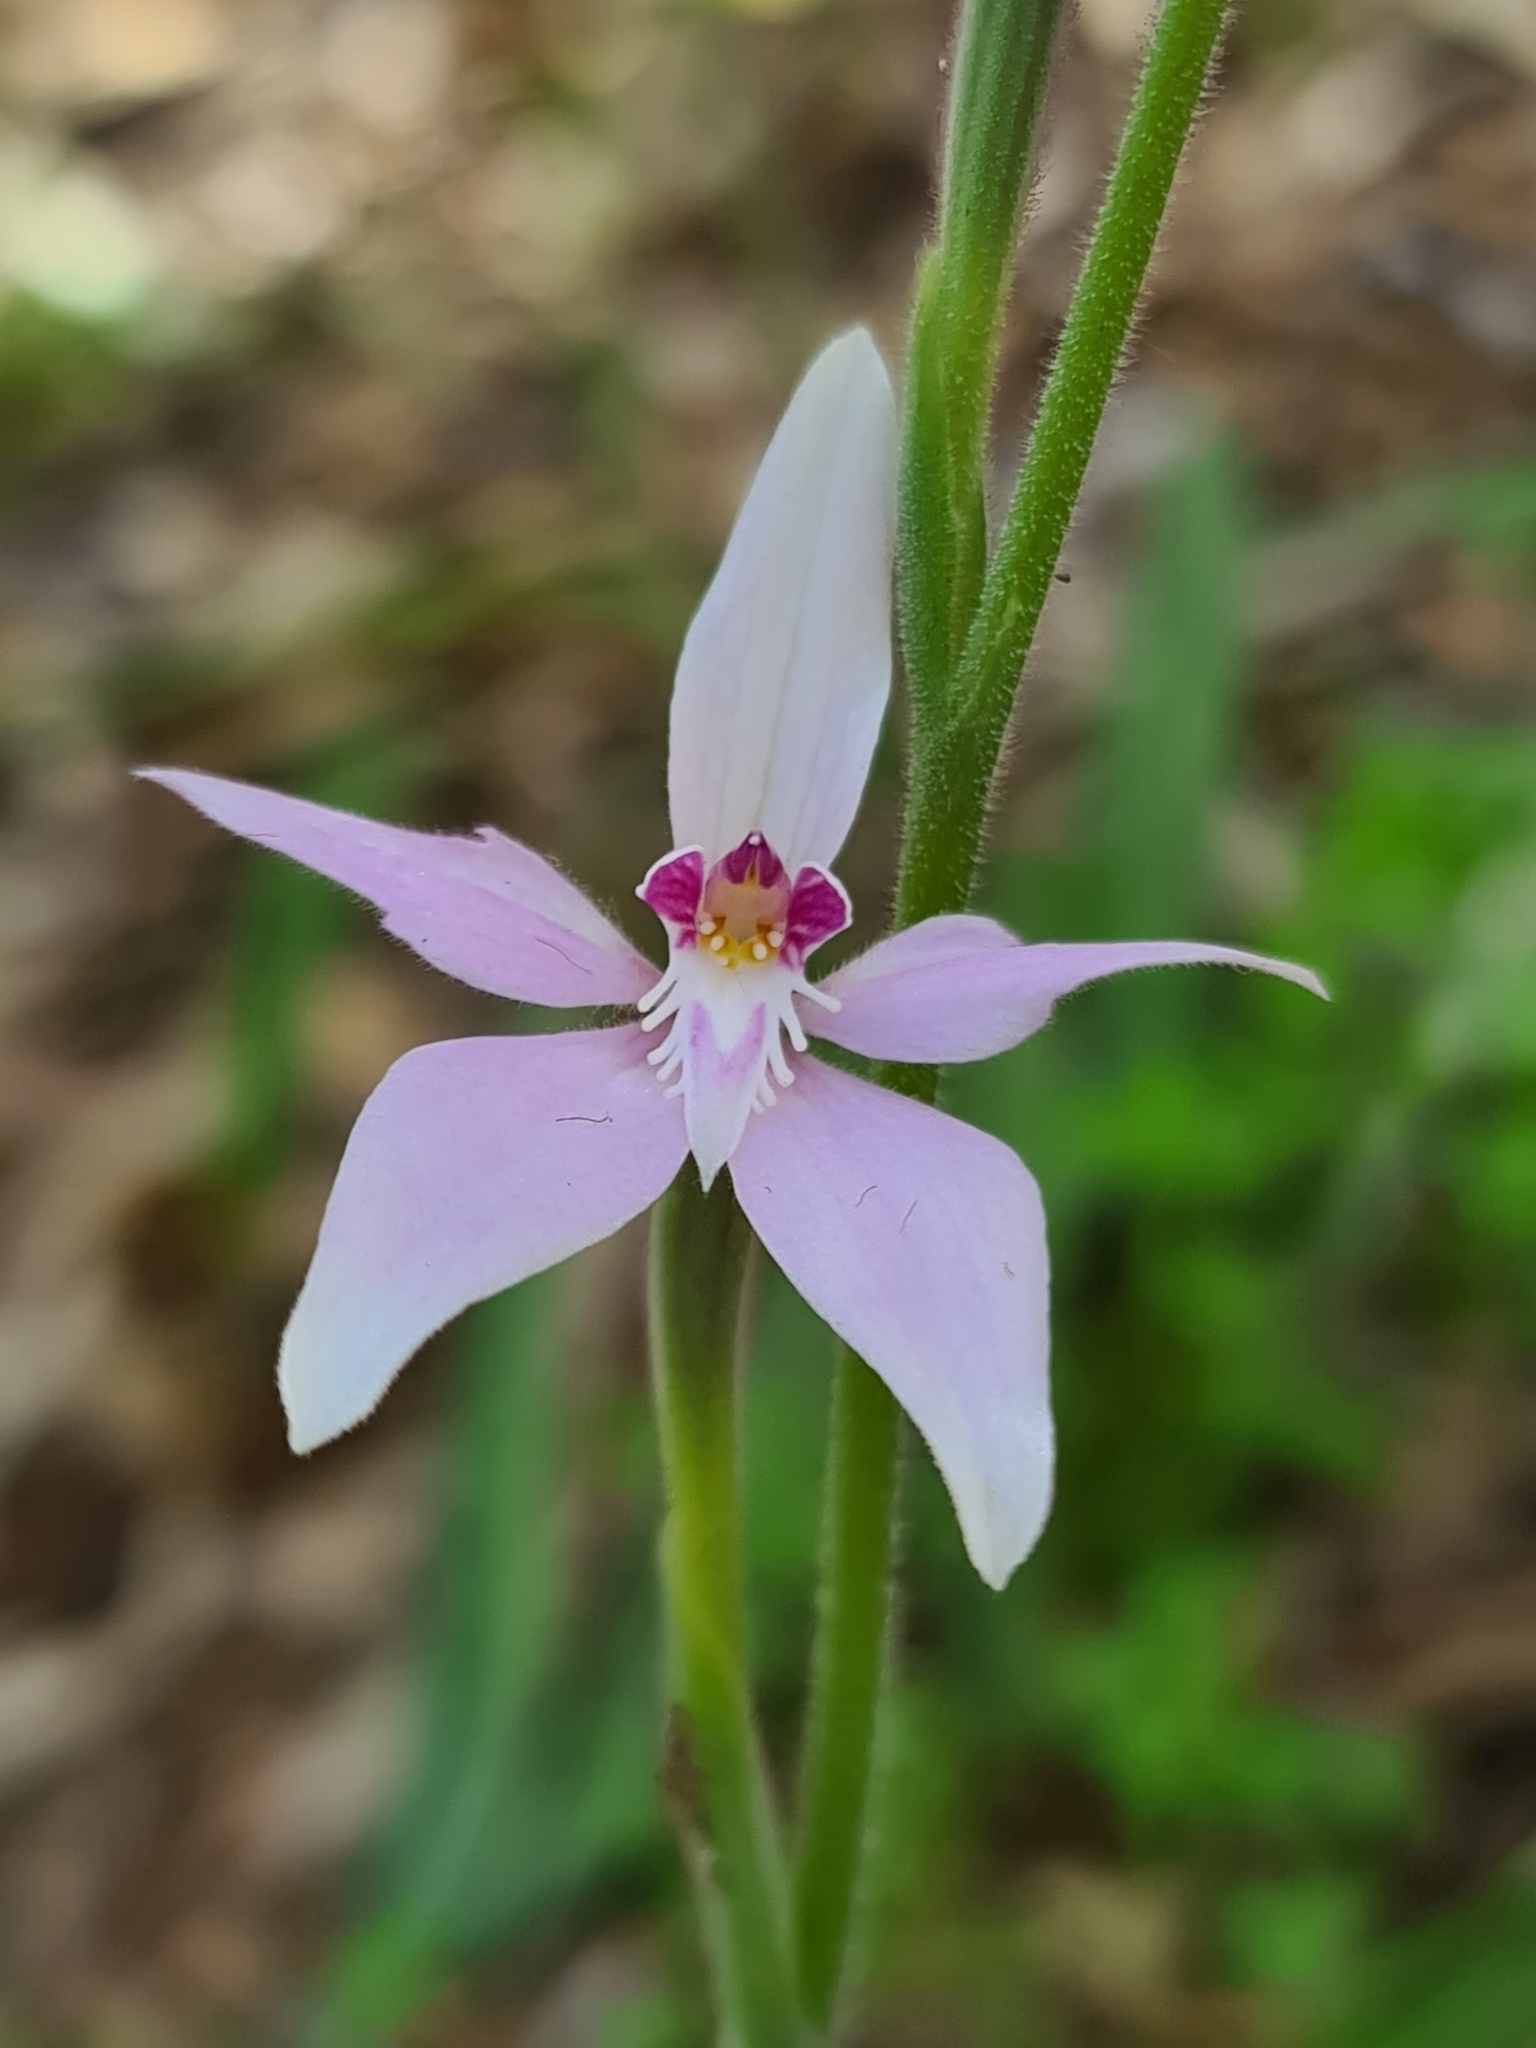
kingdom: Plantae
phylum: Tracheophyta
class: Liliopsida
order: Asparagales
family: Orchidaceae
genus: Caladenia
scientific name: Caladenia latifolia
